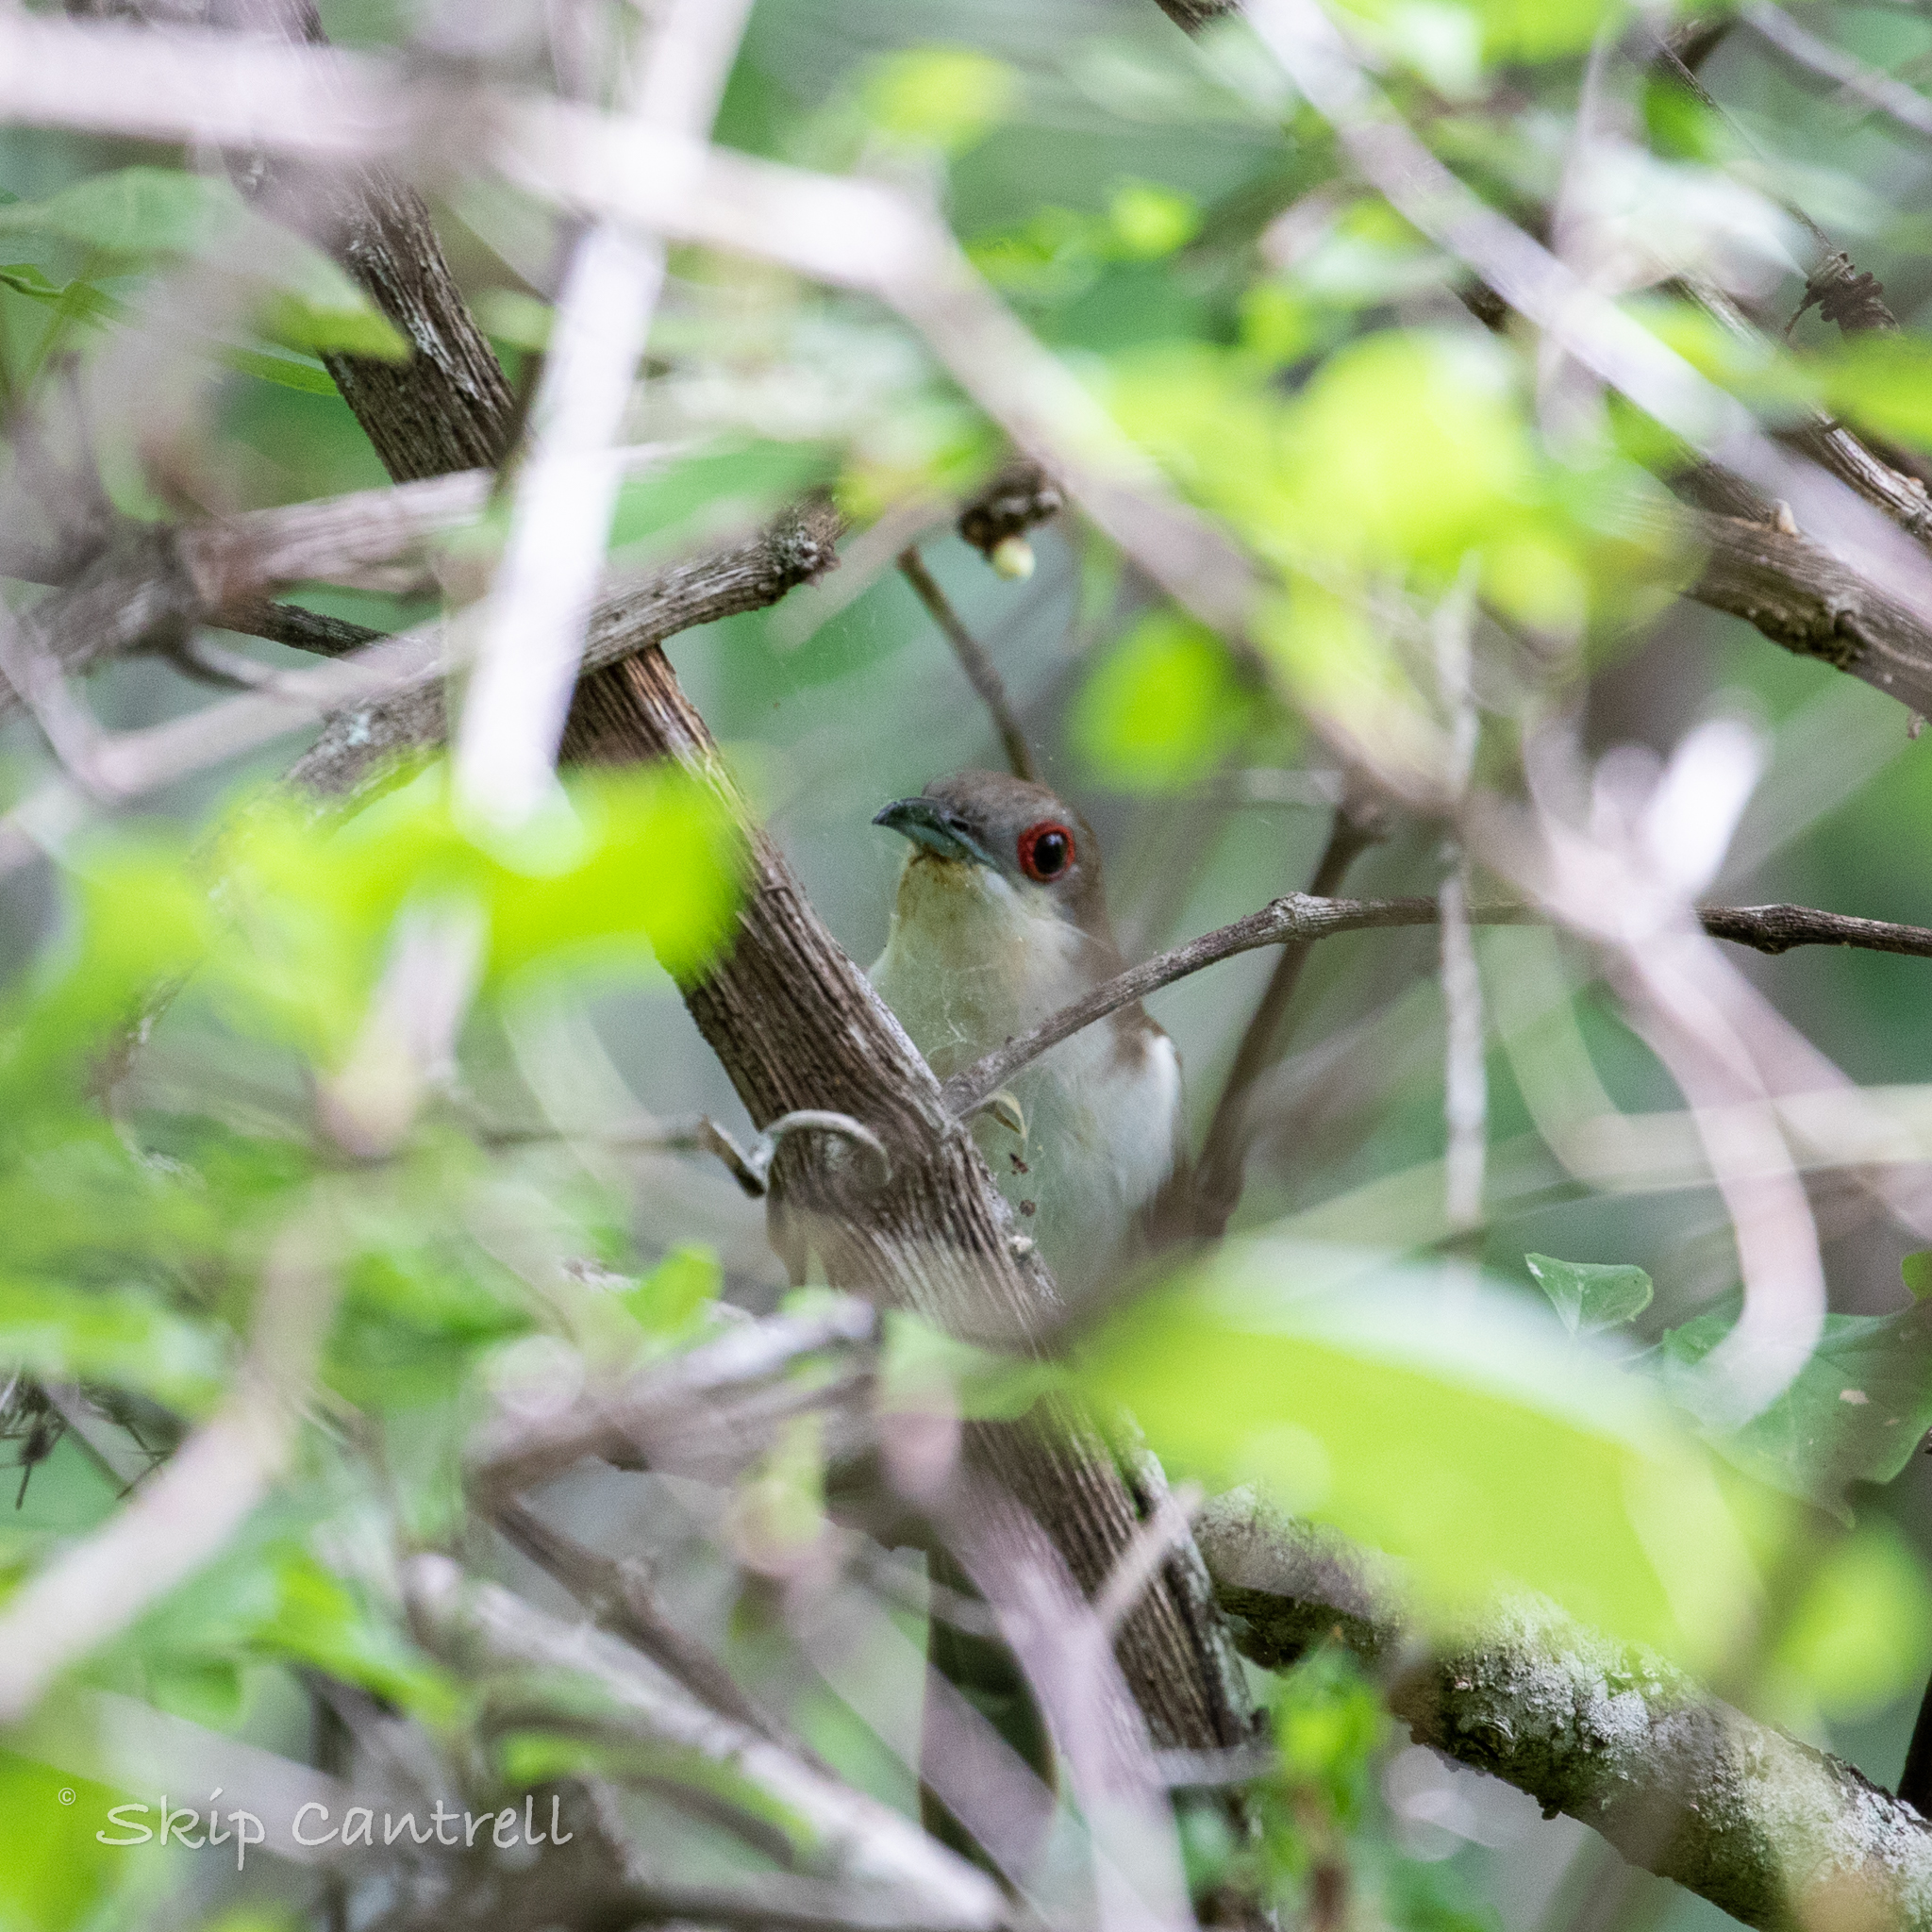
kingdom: Animalia
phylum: Chordata
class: Aves
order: Cuculiformes
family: Cuculidae
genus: Coccyzus
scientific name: Coccyzus erythropthalmus
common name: Black-billed cuckoo
